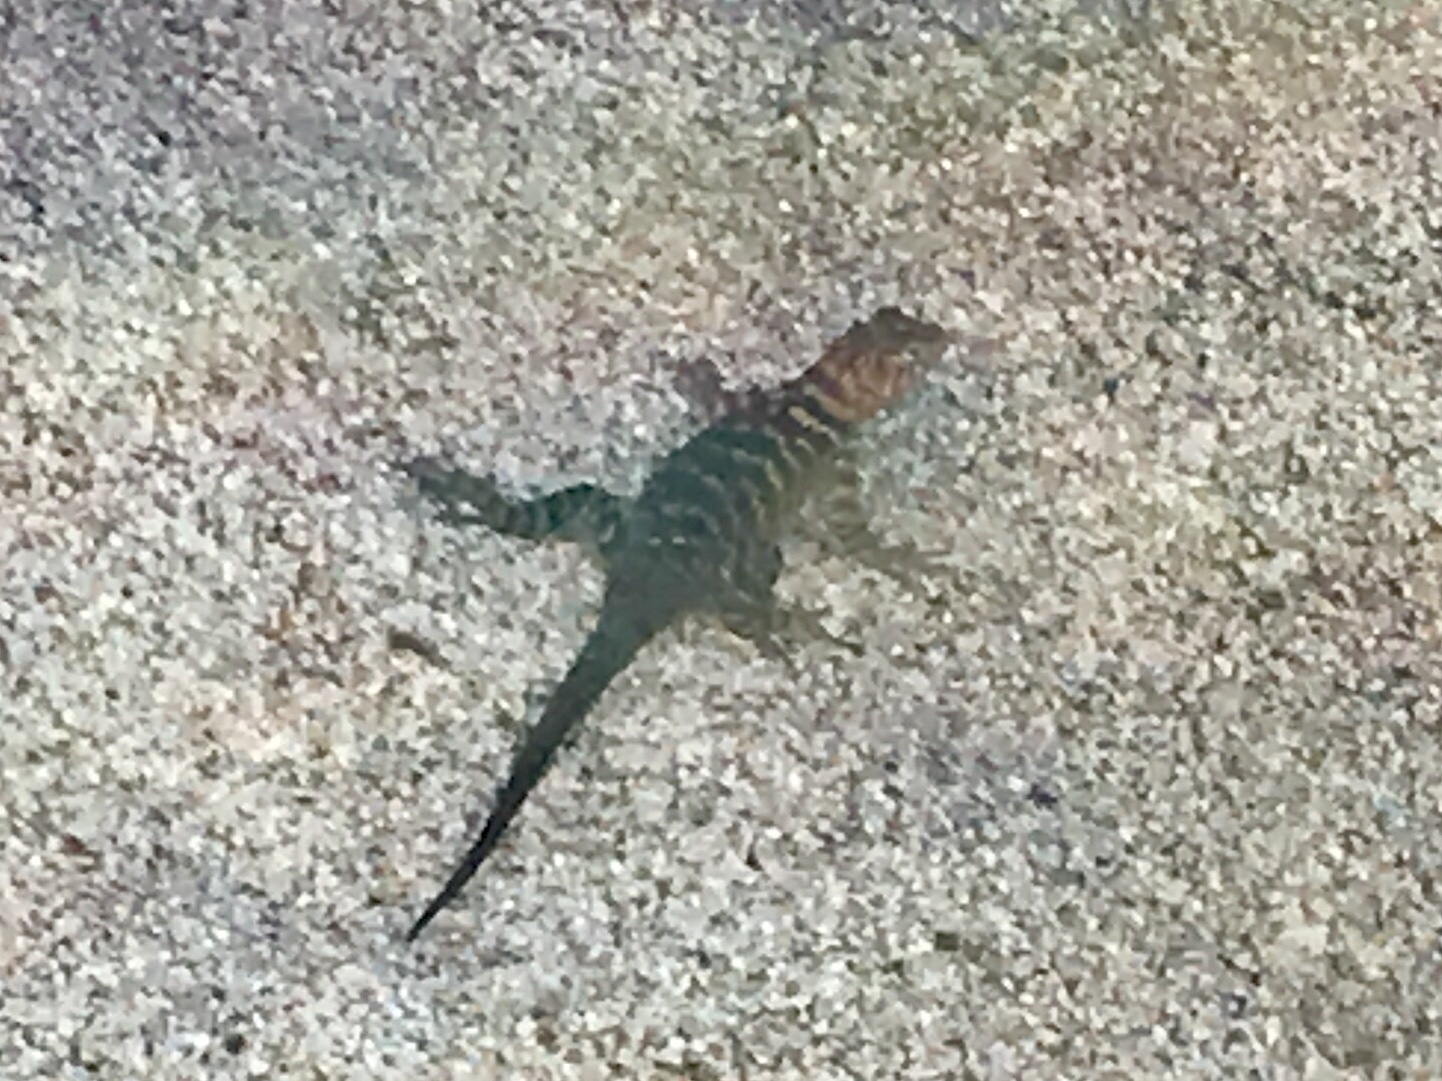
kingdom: Animalia
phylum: Chordata
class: Squamata
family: Phrynosomatidae
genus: Sceloporus
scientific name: Sceloporus orcutti
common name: Granite spiny lizard
